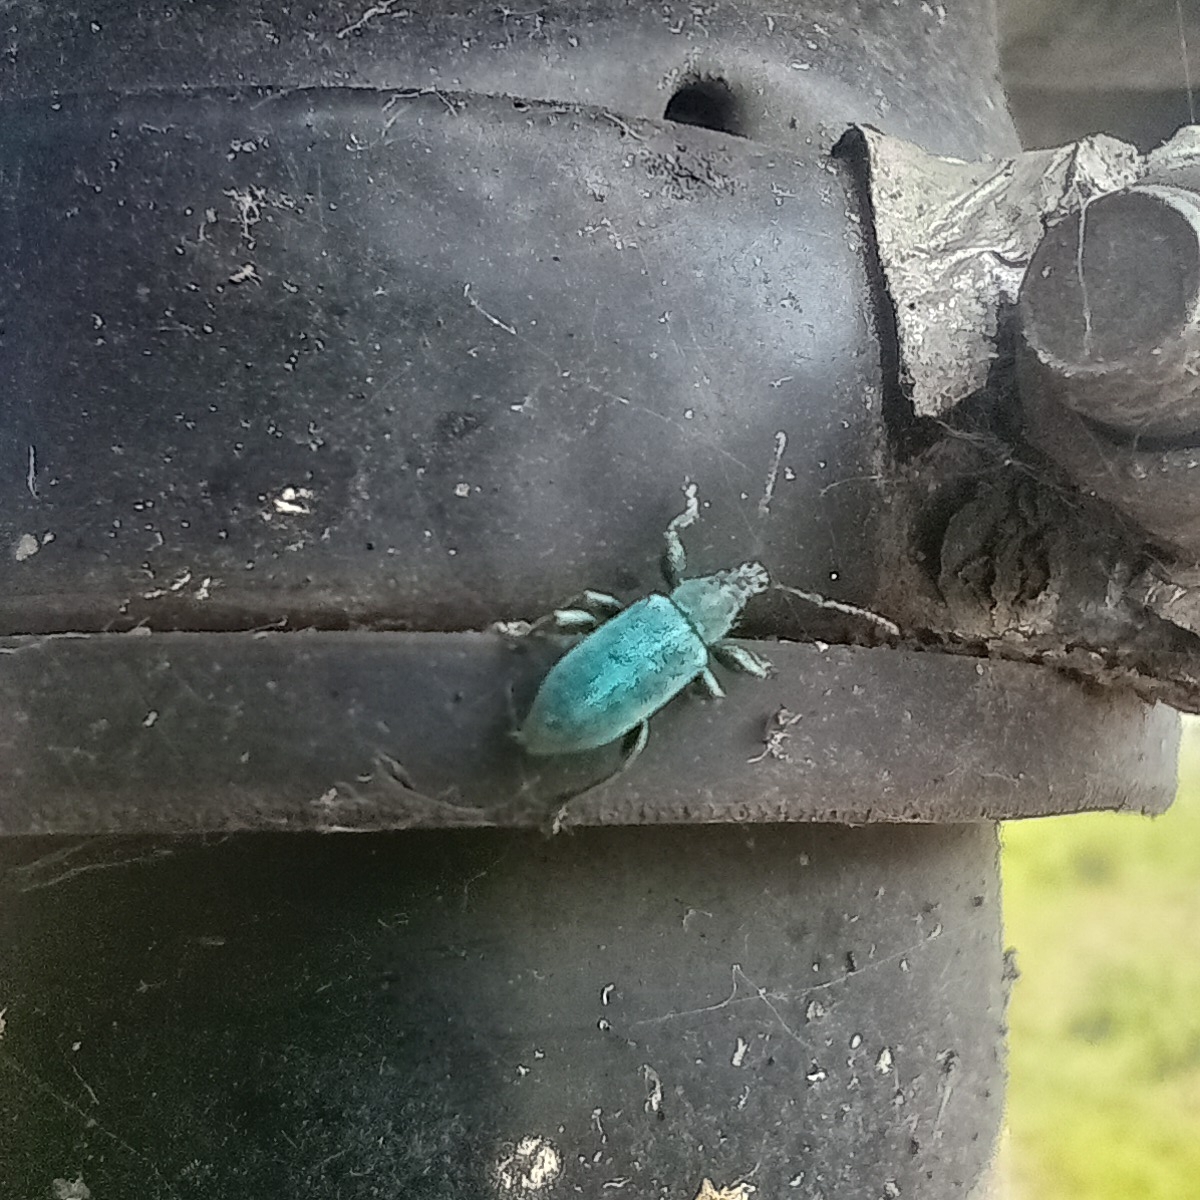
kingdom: Animalia
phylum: Arthropoda
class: Insecta
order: Coleoptera
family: Curculionidae
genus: Phyllobius
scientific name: Phyllobius pomaceus
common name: Green nettle weevil
